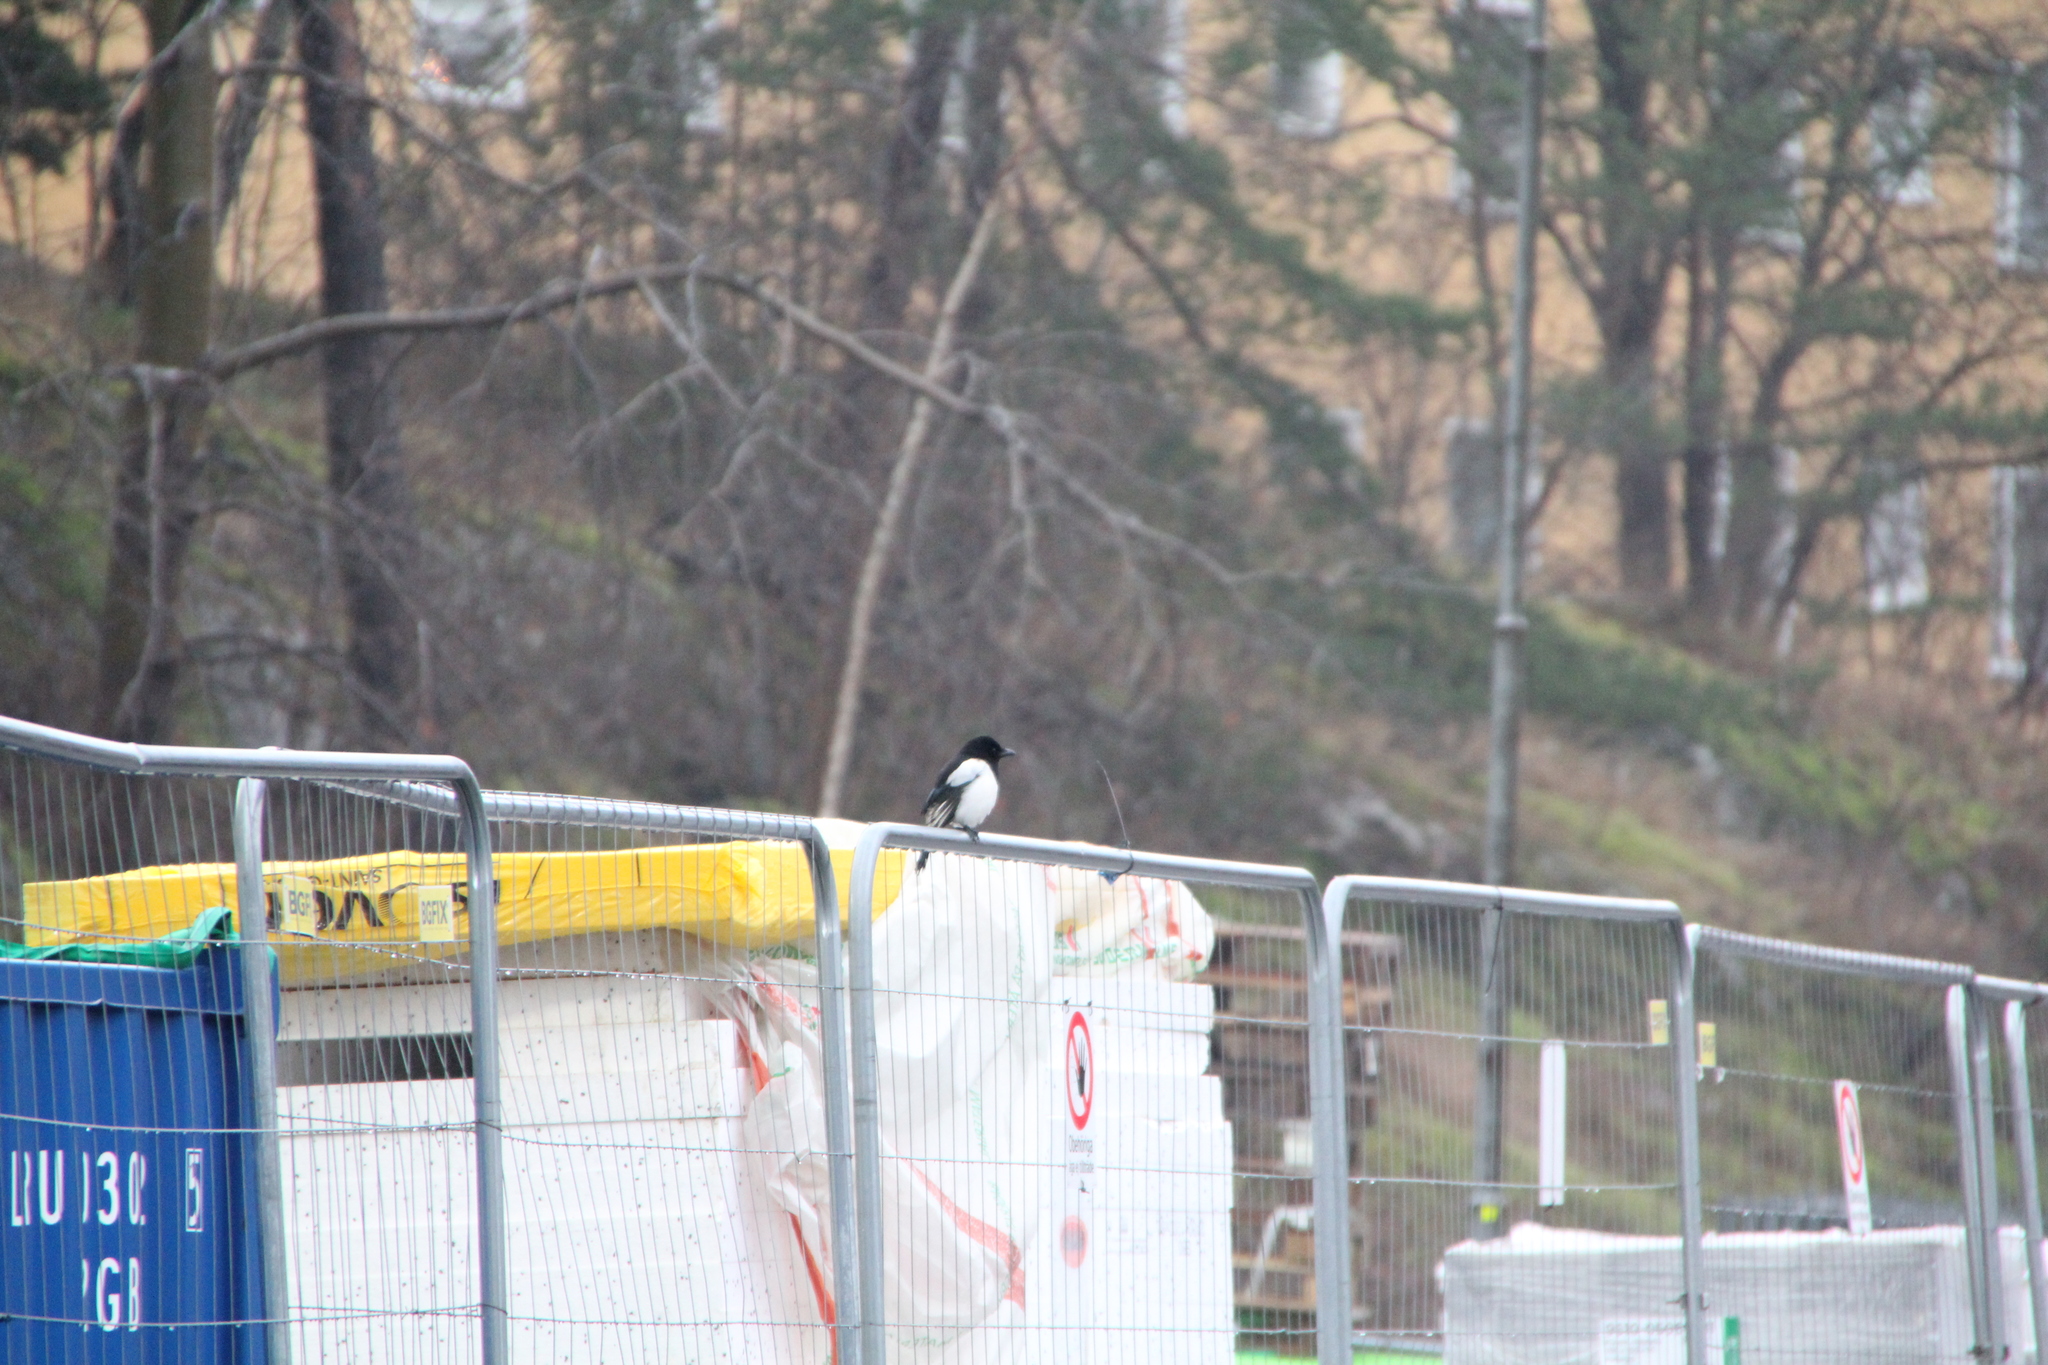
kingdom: Animalia
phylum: Chordata
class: Aves
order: Passeriformes
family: Corvidae
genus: Pica
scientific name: Pica pica
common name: Eurasian magpie
